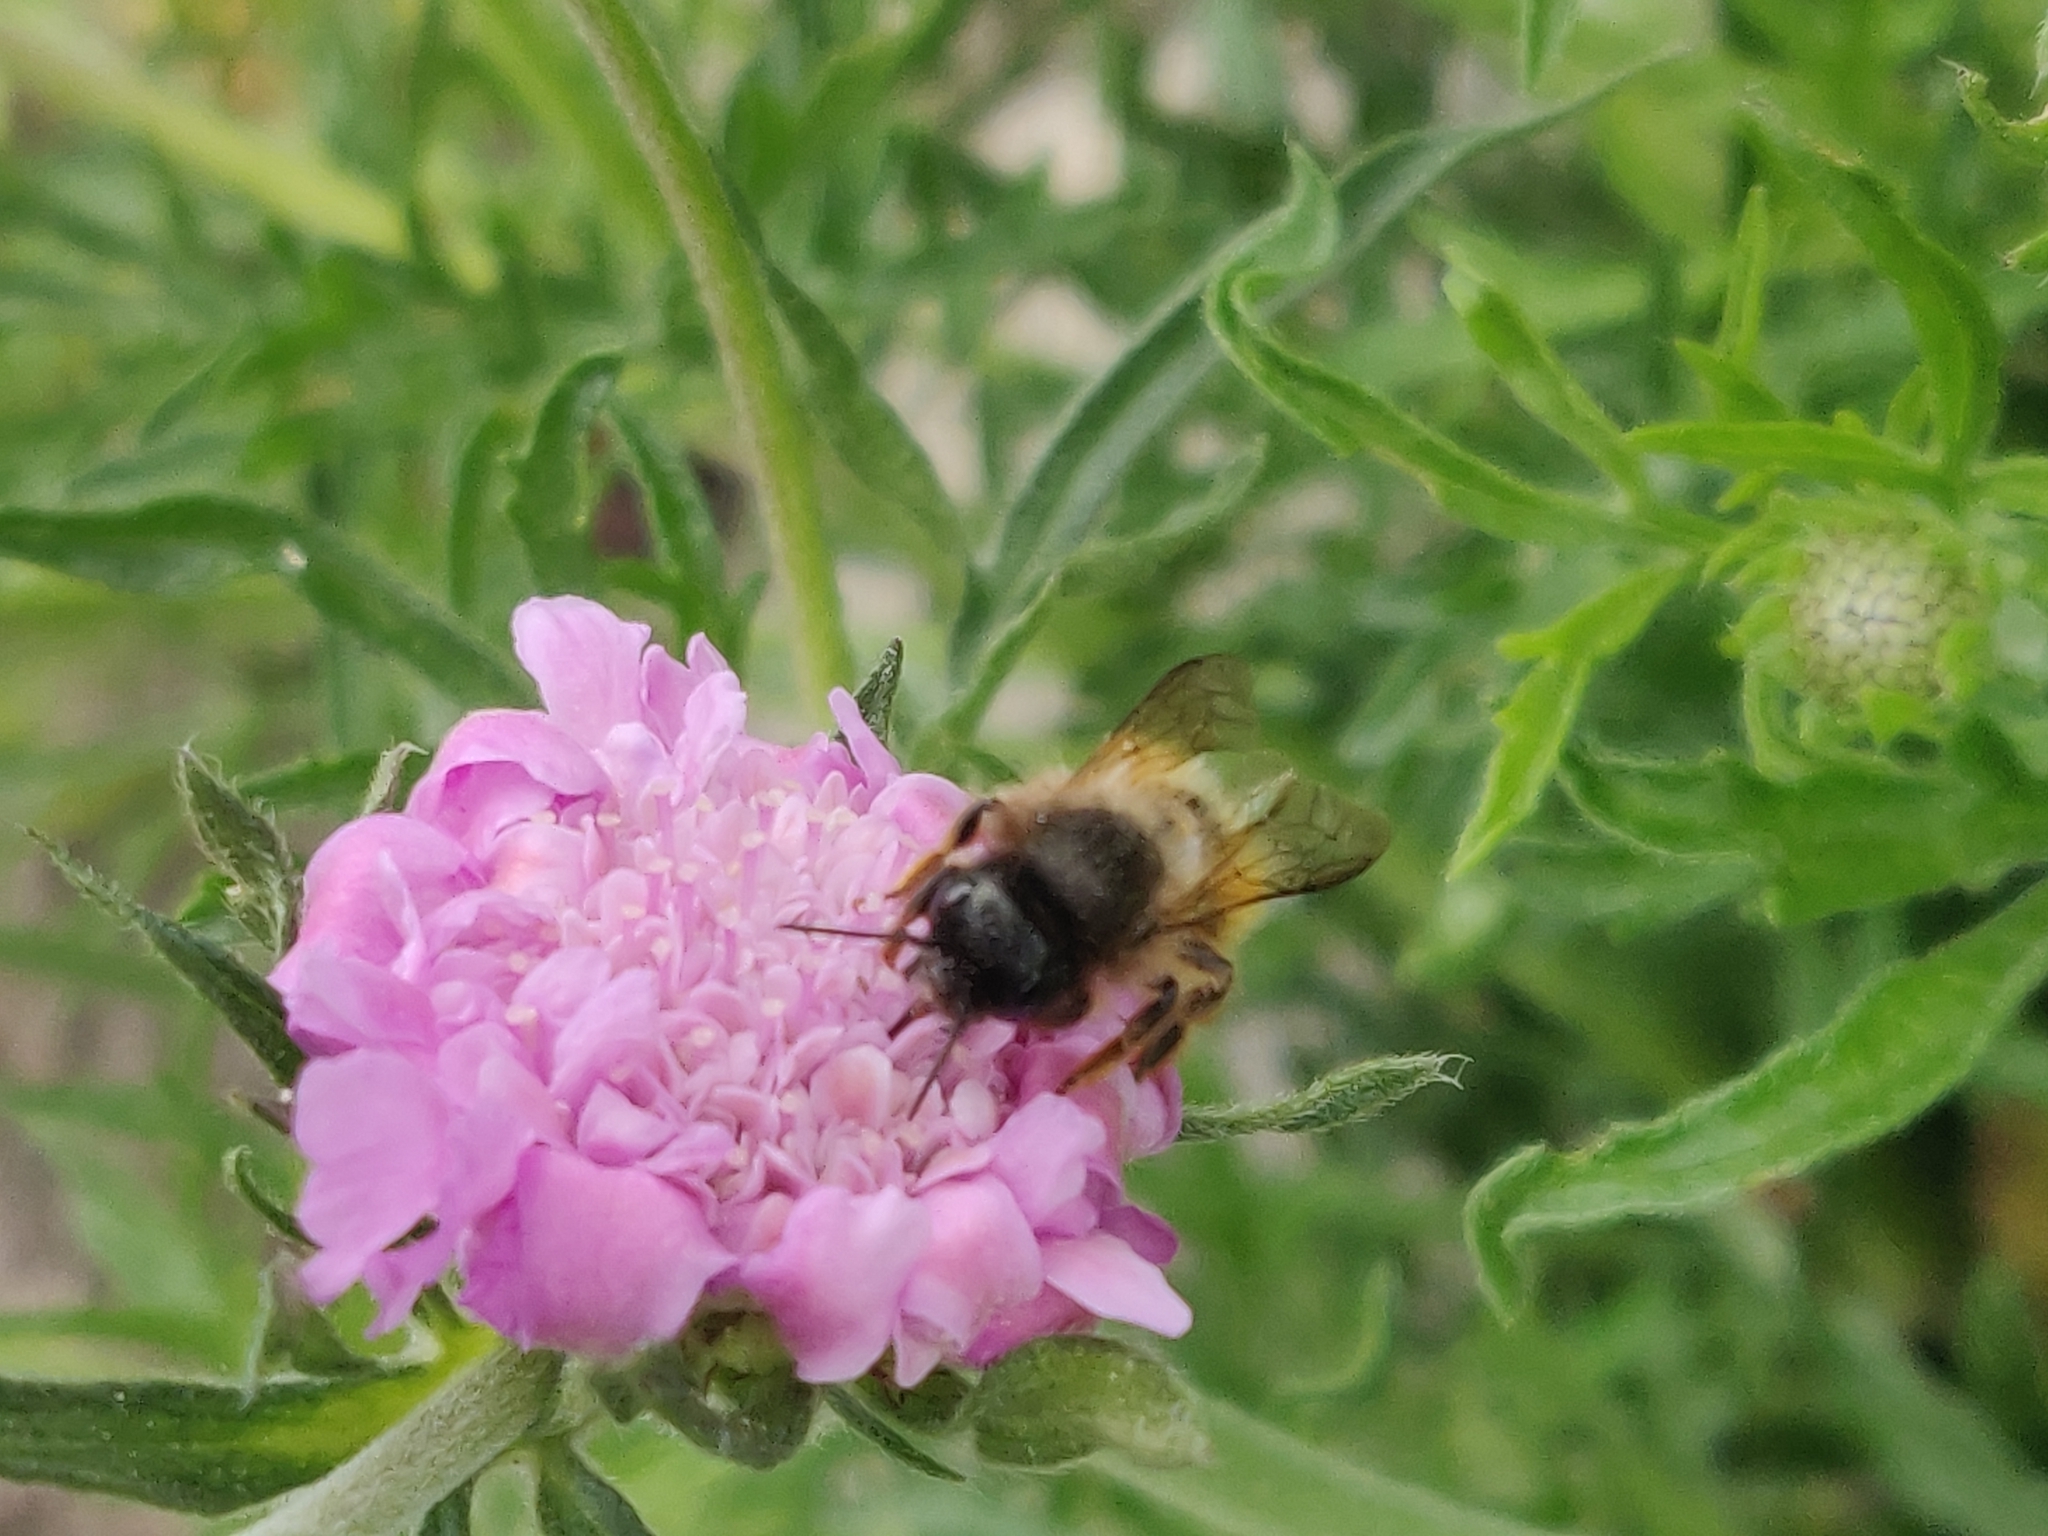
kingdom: Animalia
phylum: Arthropoda
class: Insecta
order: Hymenoptera
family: Megachilidae
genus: Osmia
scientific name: Osmia bicornis
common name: Red mason bee
